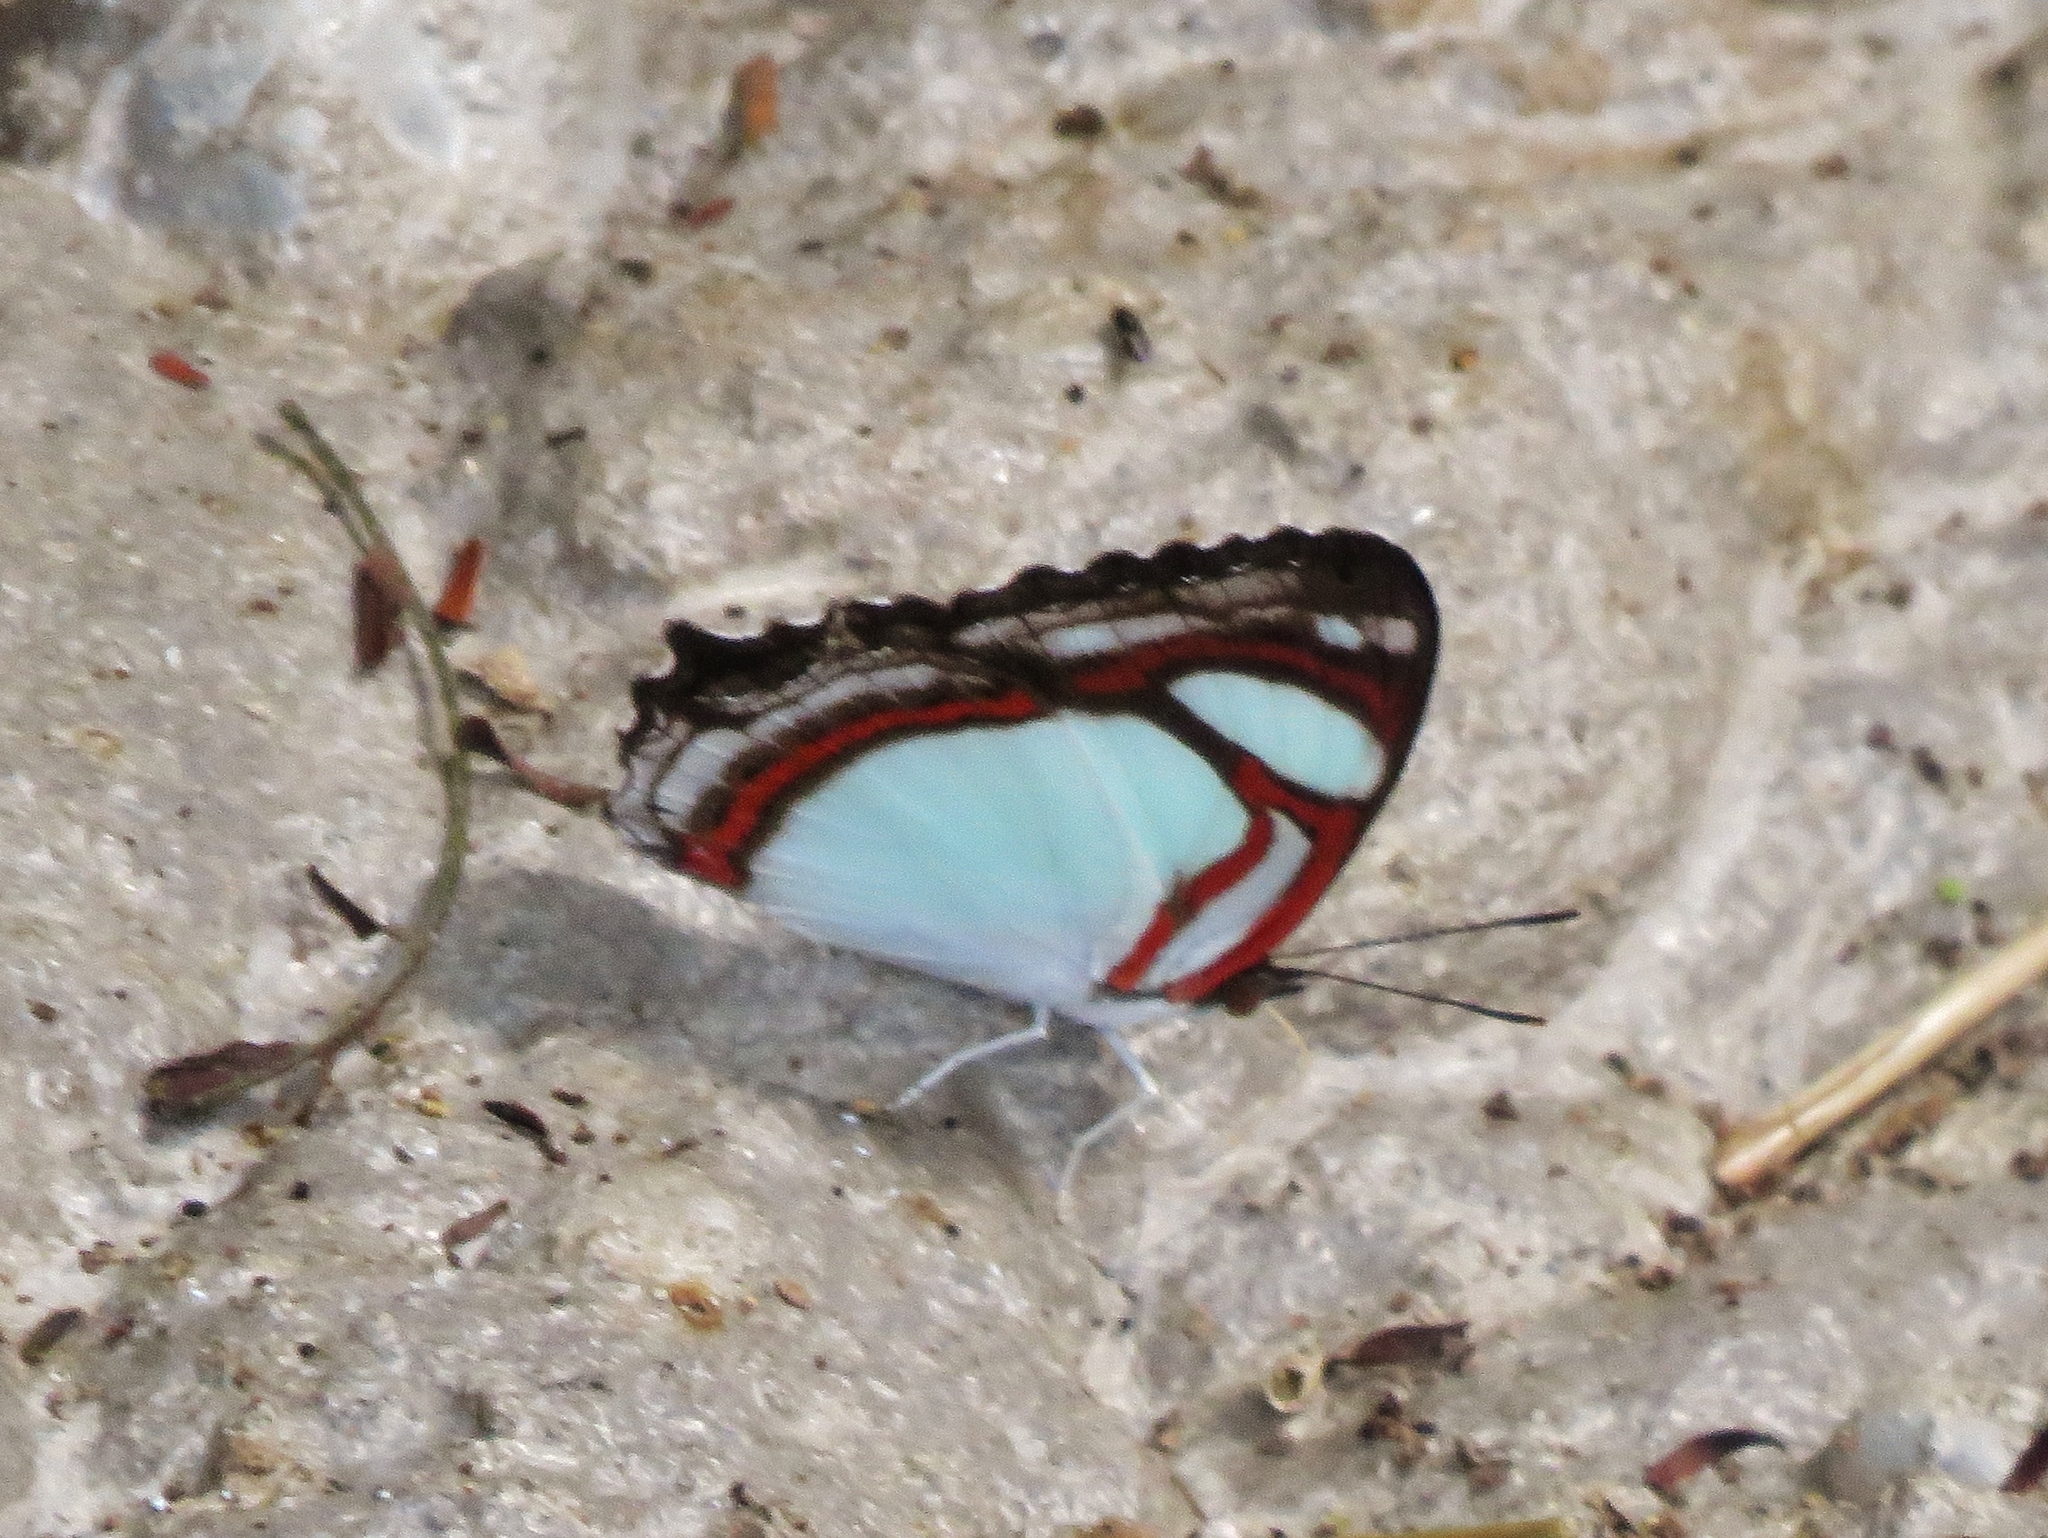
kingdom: Animalia
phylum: Arthropoda
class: Insecta
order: Lepidoptera
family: Nymphalidae
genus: Pyrrhogyra
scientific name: Pyrrhogyra otolais
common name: Double-banded banner
